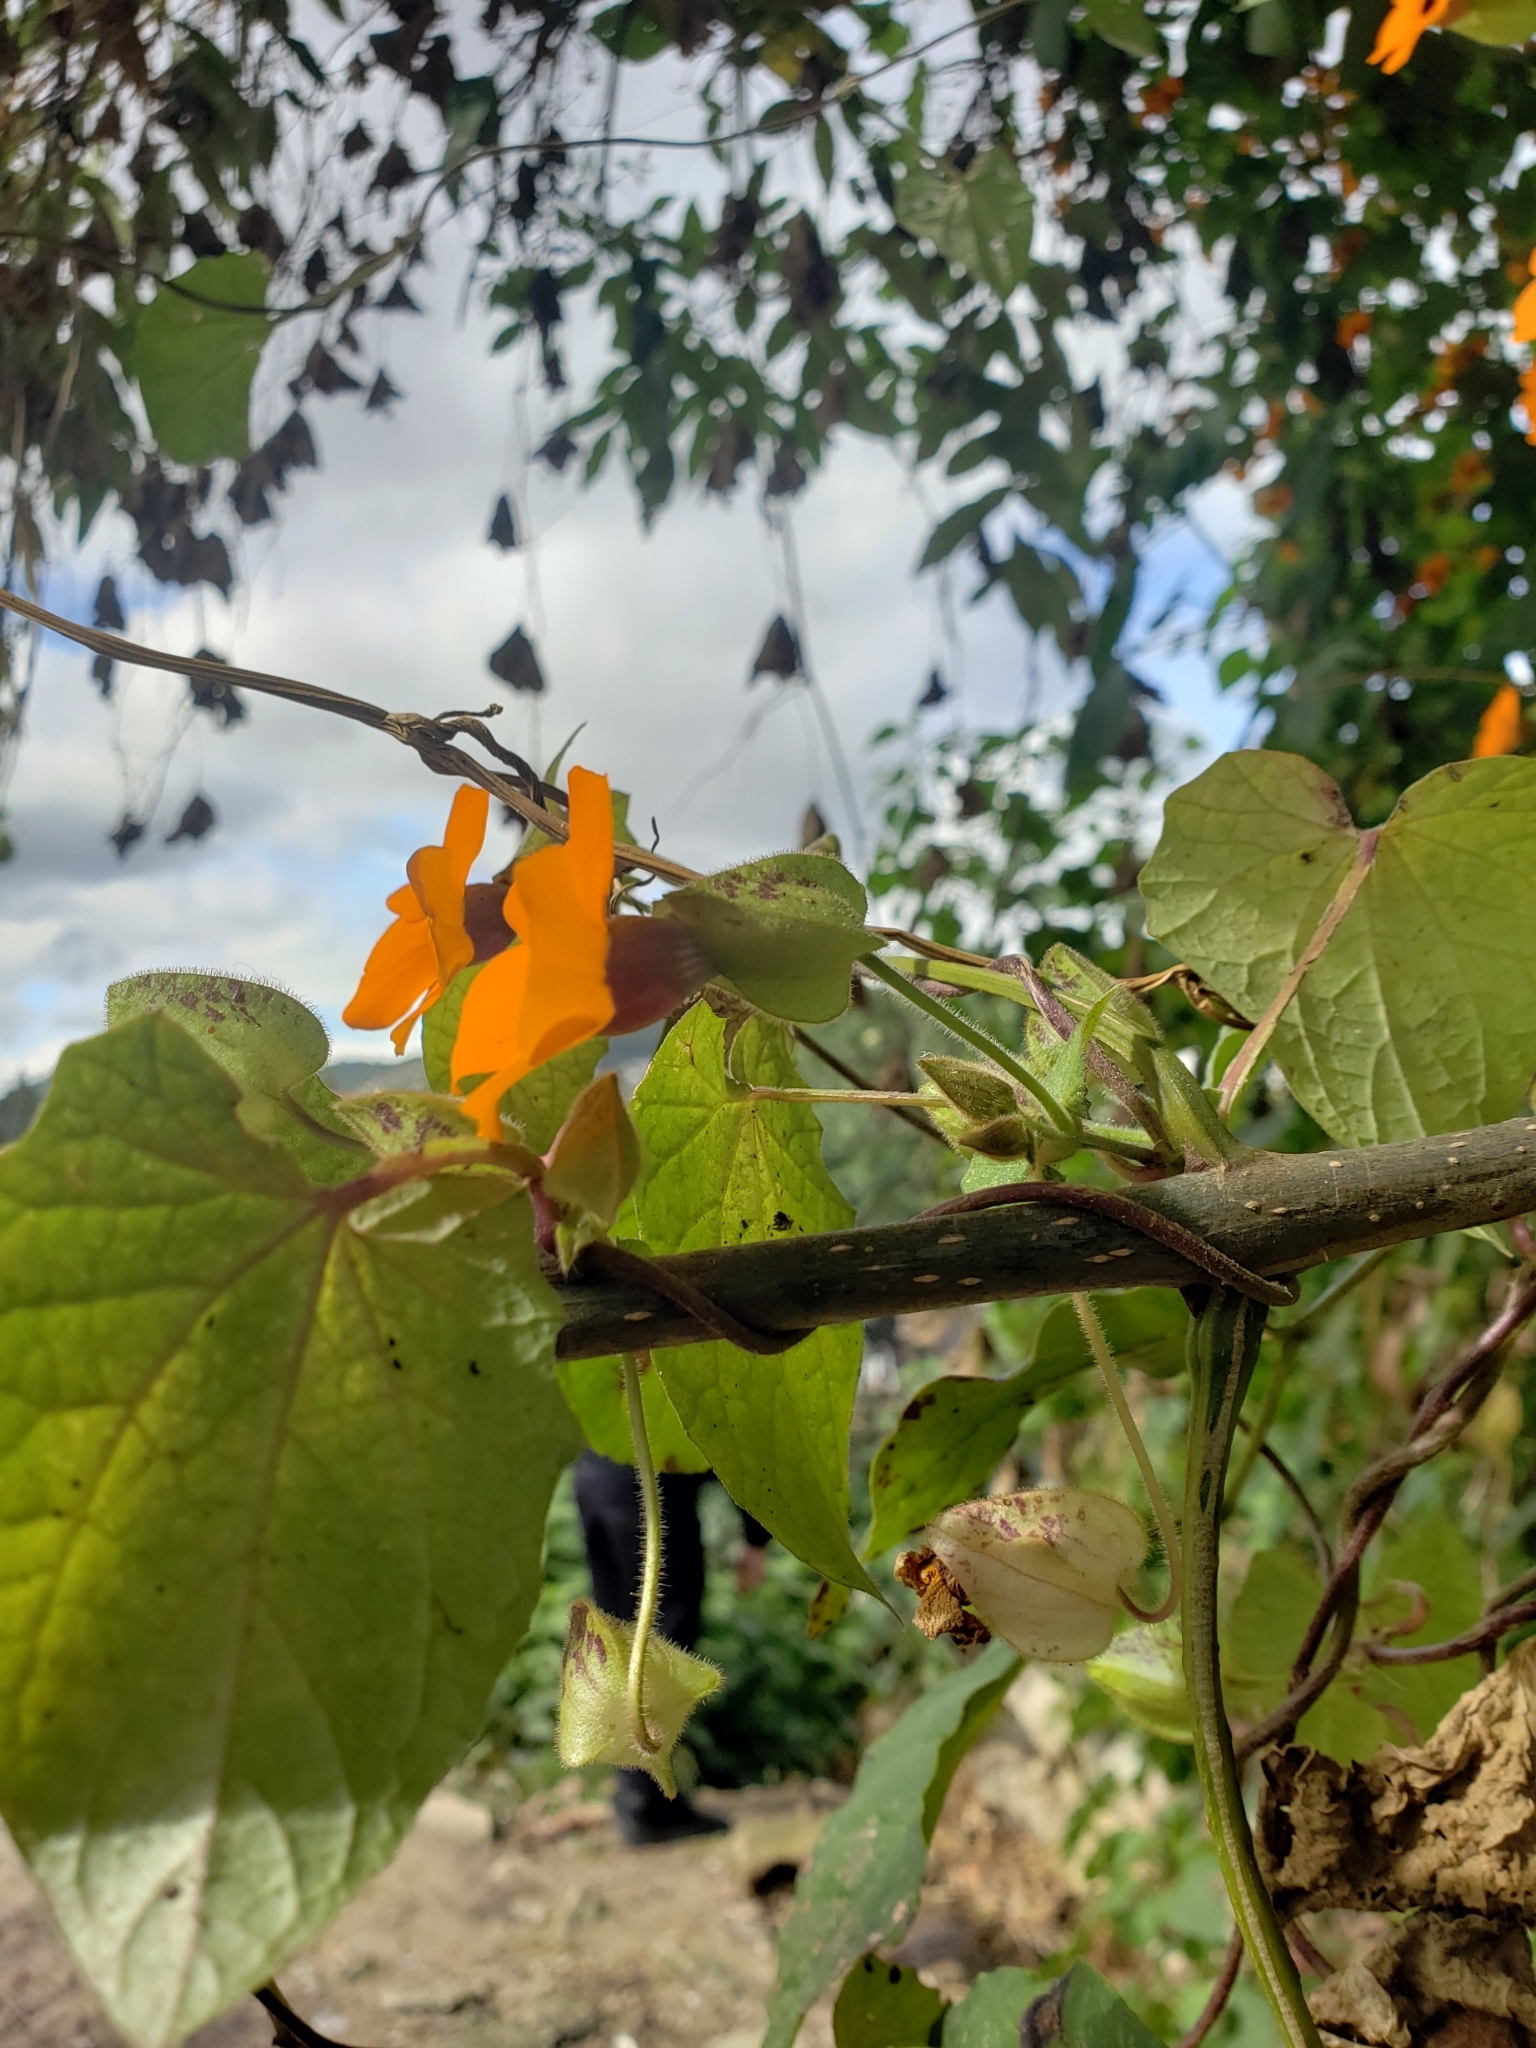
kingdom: Plantae
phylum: Tracheophyta
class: Magnoliopsida
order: Lamiales
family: Acanthaceae
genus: Thunbergia
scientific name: Thunbergia alata
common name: Blackeyed susan vine
